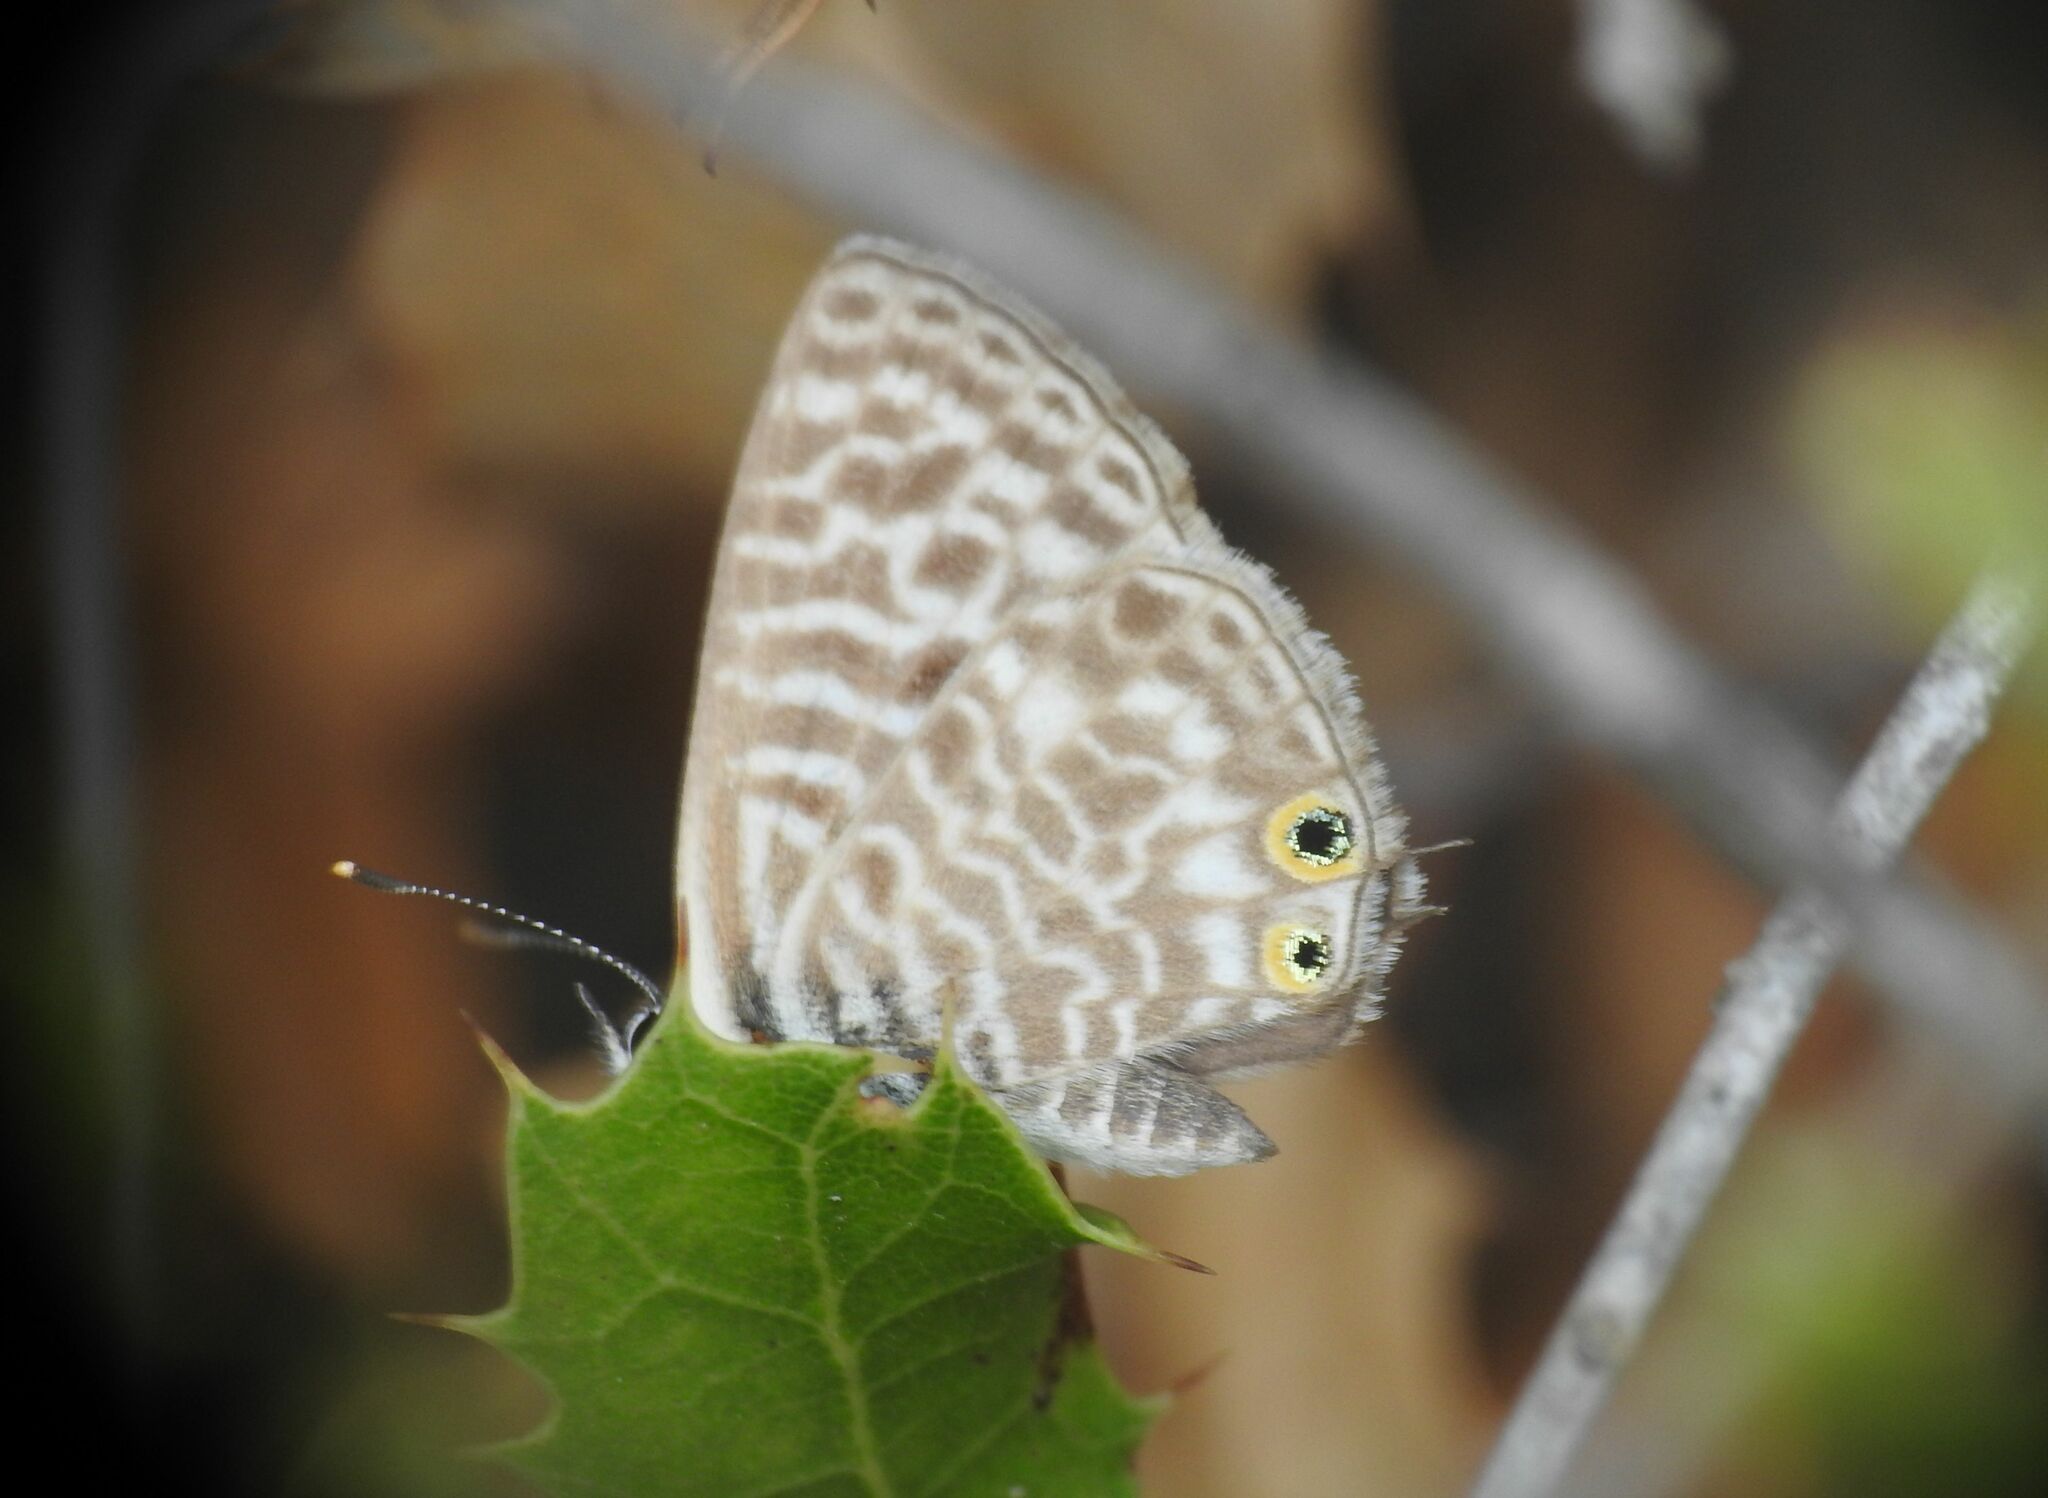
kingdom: Animalia
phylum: Arthropoda
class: Insecta
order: Lepidoptera
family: Lycaenidae
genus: Leptotes
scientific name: Leptotes pirithous
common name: Lang's short-tailed blue
